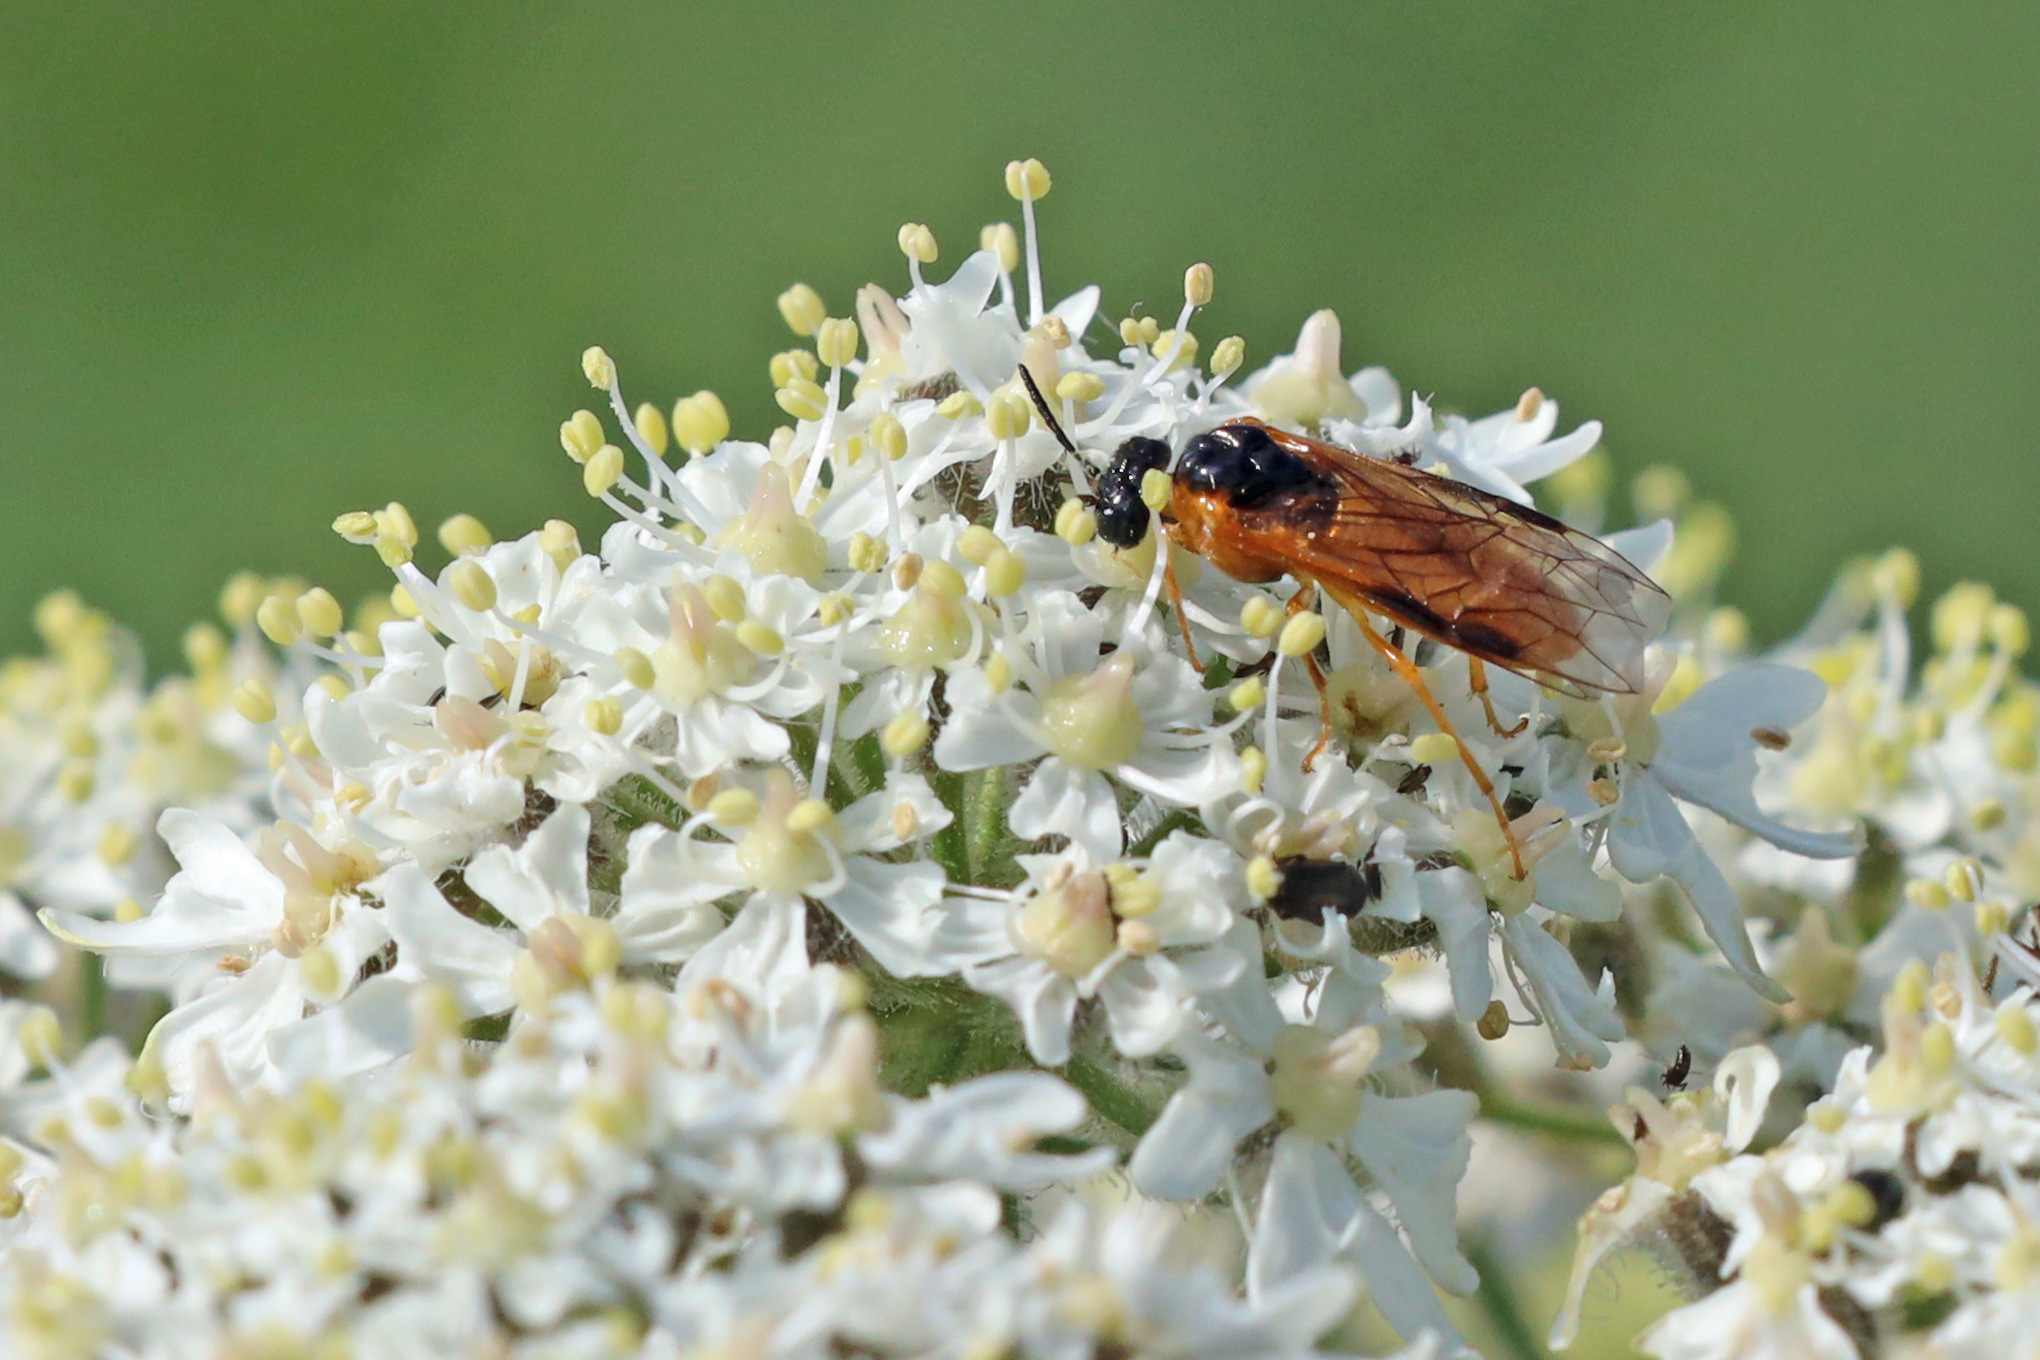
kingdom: Animalia
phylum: Arthropoda
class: Insecta
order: Hymenoptera
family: Tenthredinidae
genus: Selandria
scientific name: Selandria serva
